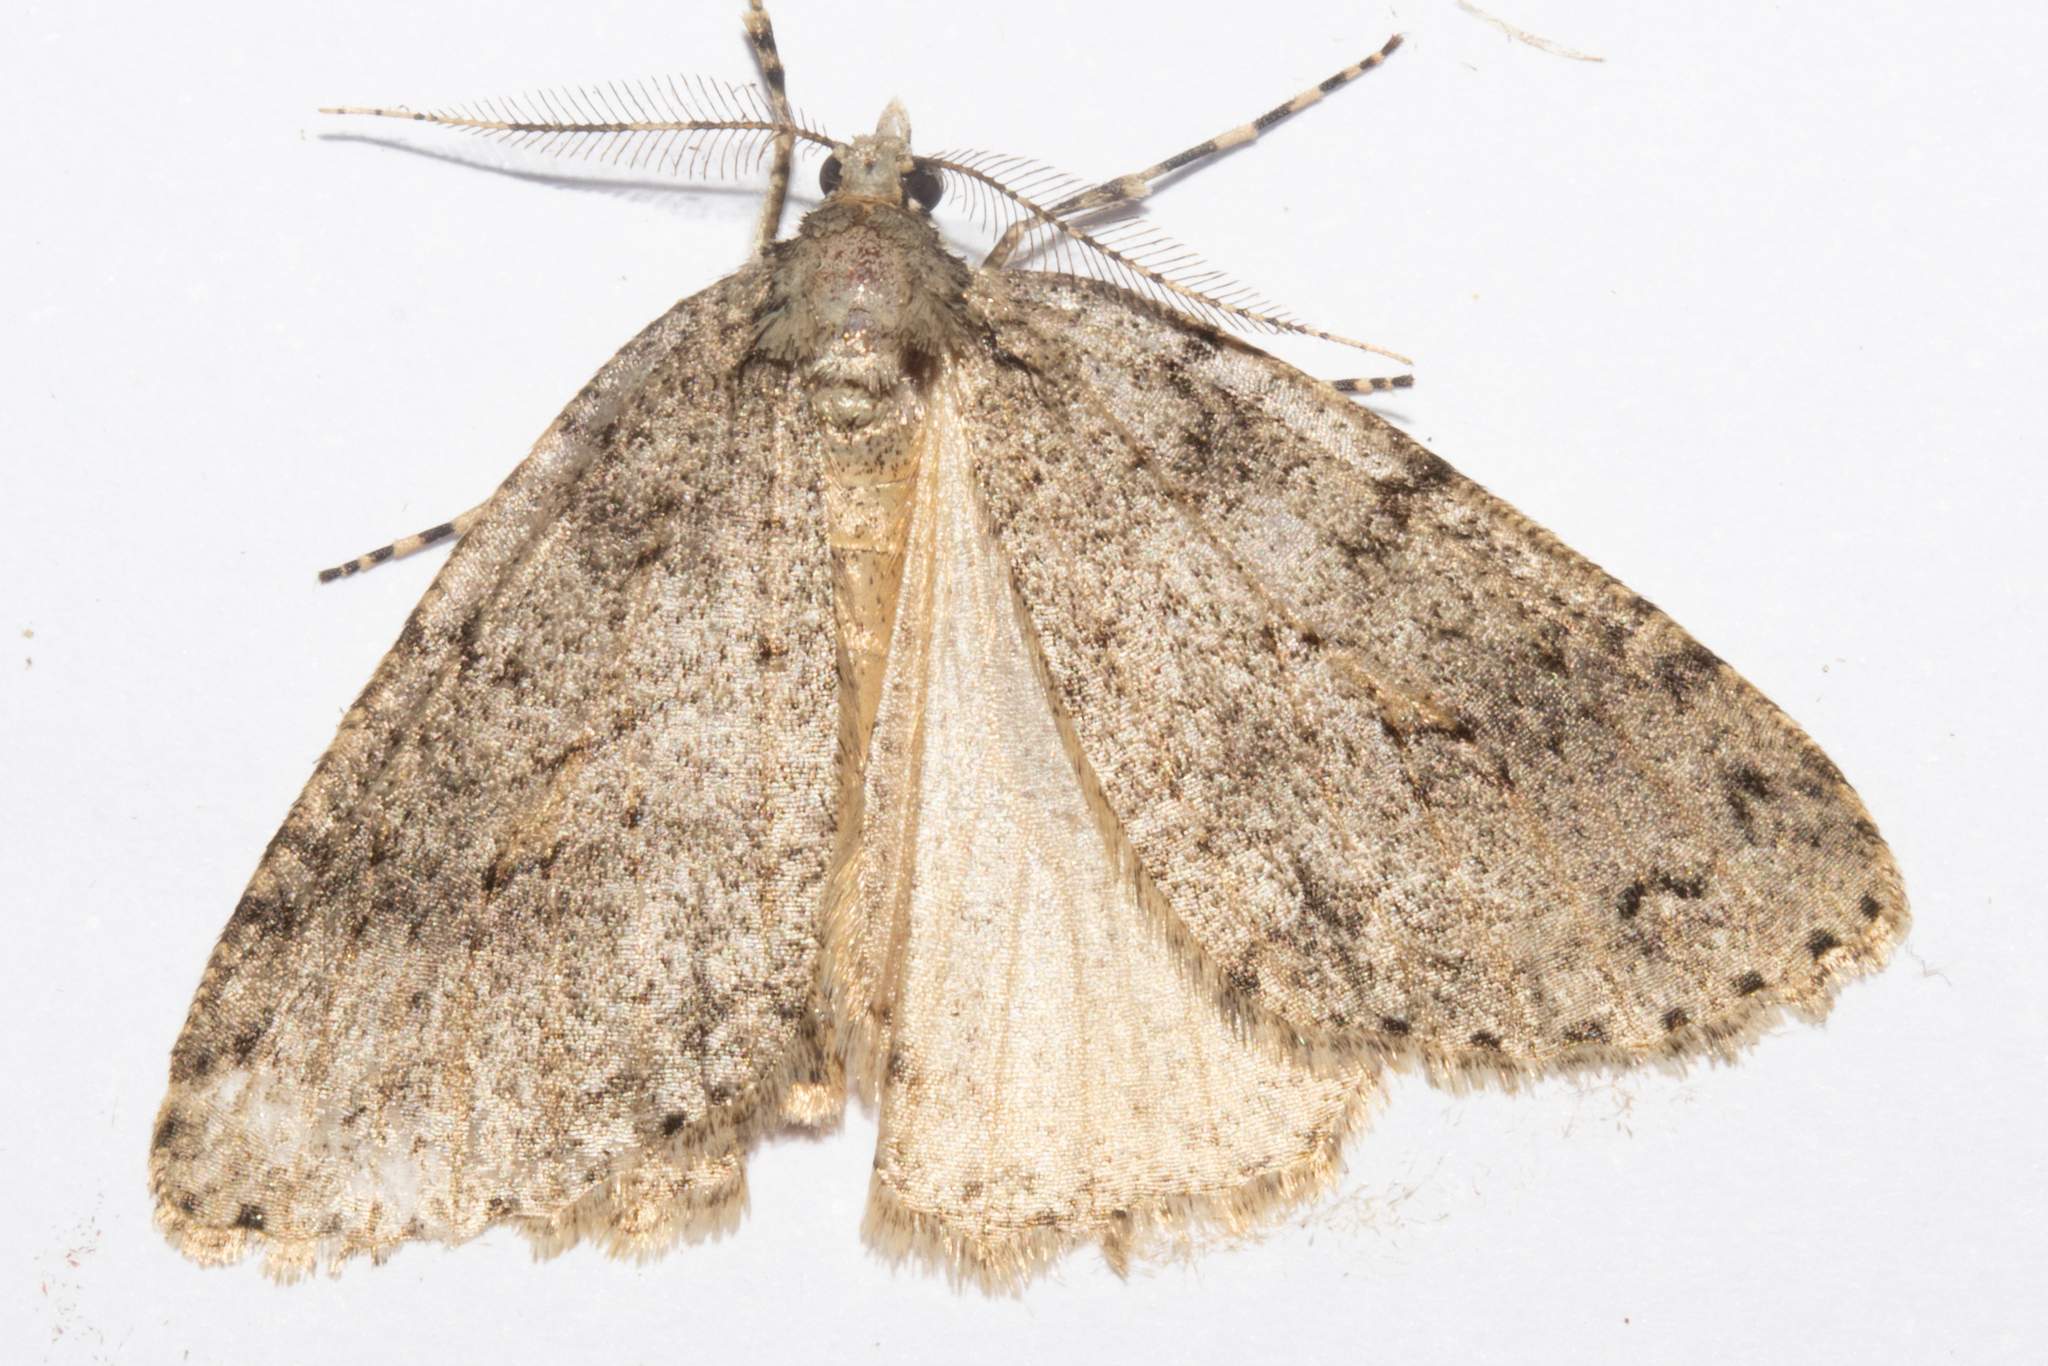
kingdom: Animalia
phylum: Arthropoda
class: Insecta
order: Lepidoptera
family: Geometridae
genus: Pseudocoremia
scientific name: Pseudocoremia rudisata
